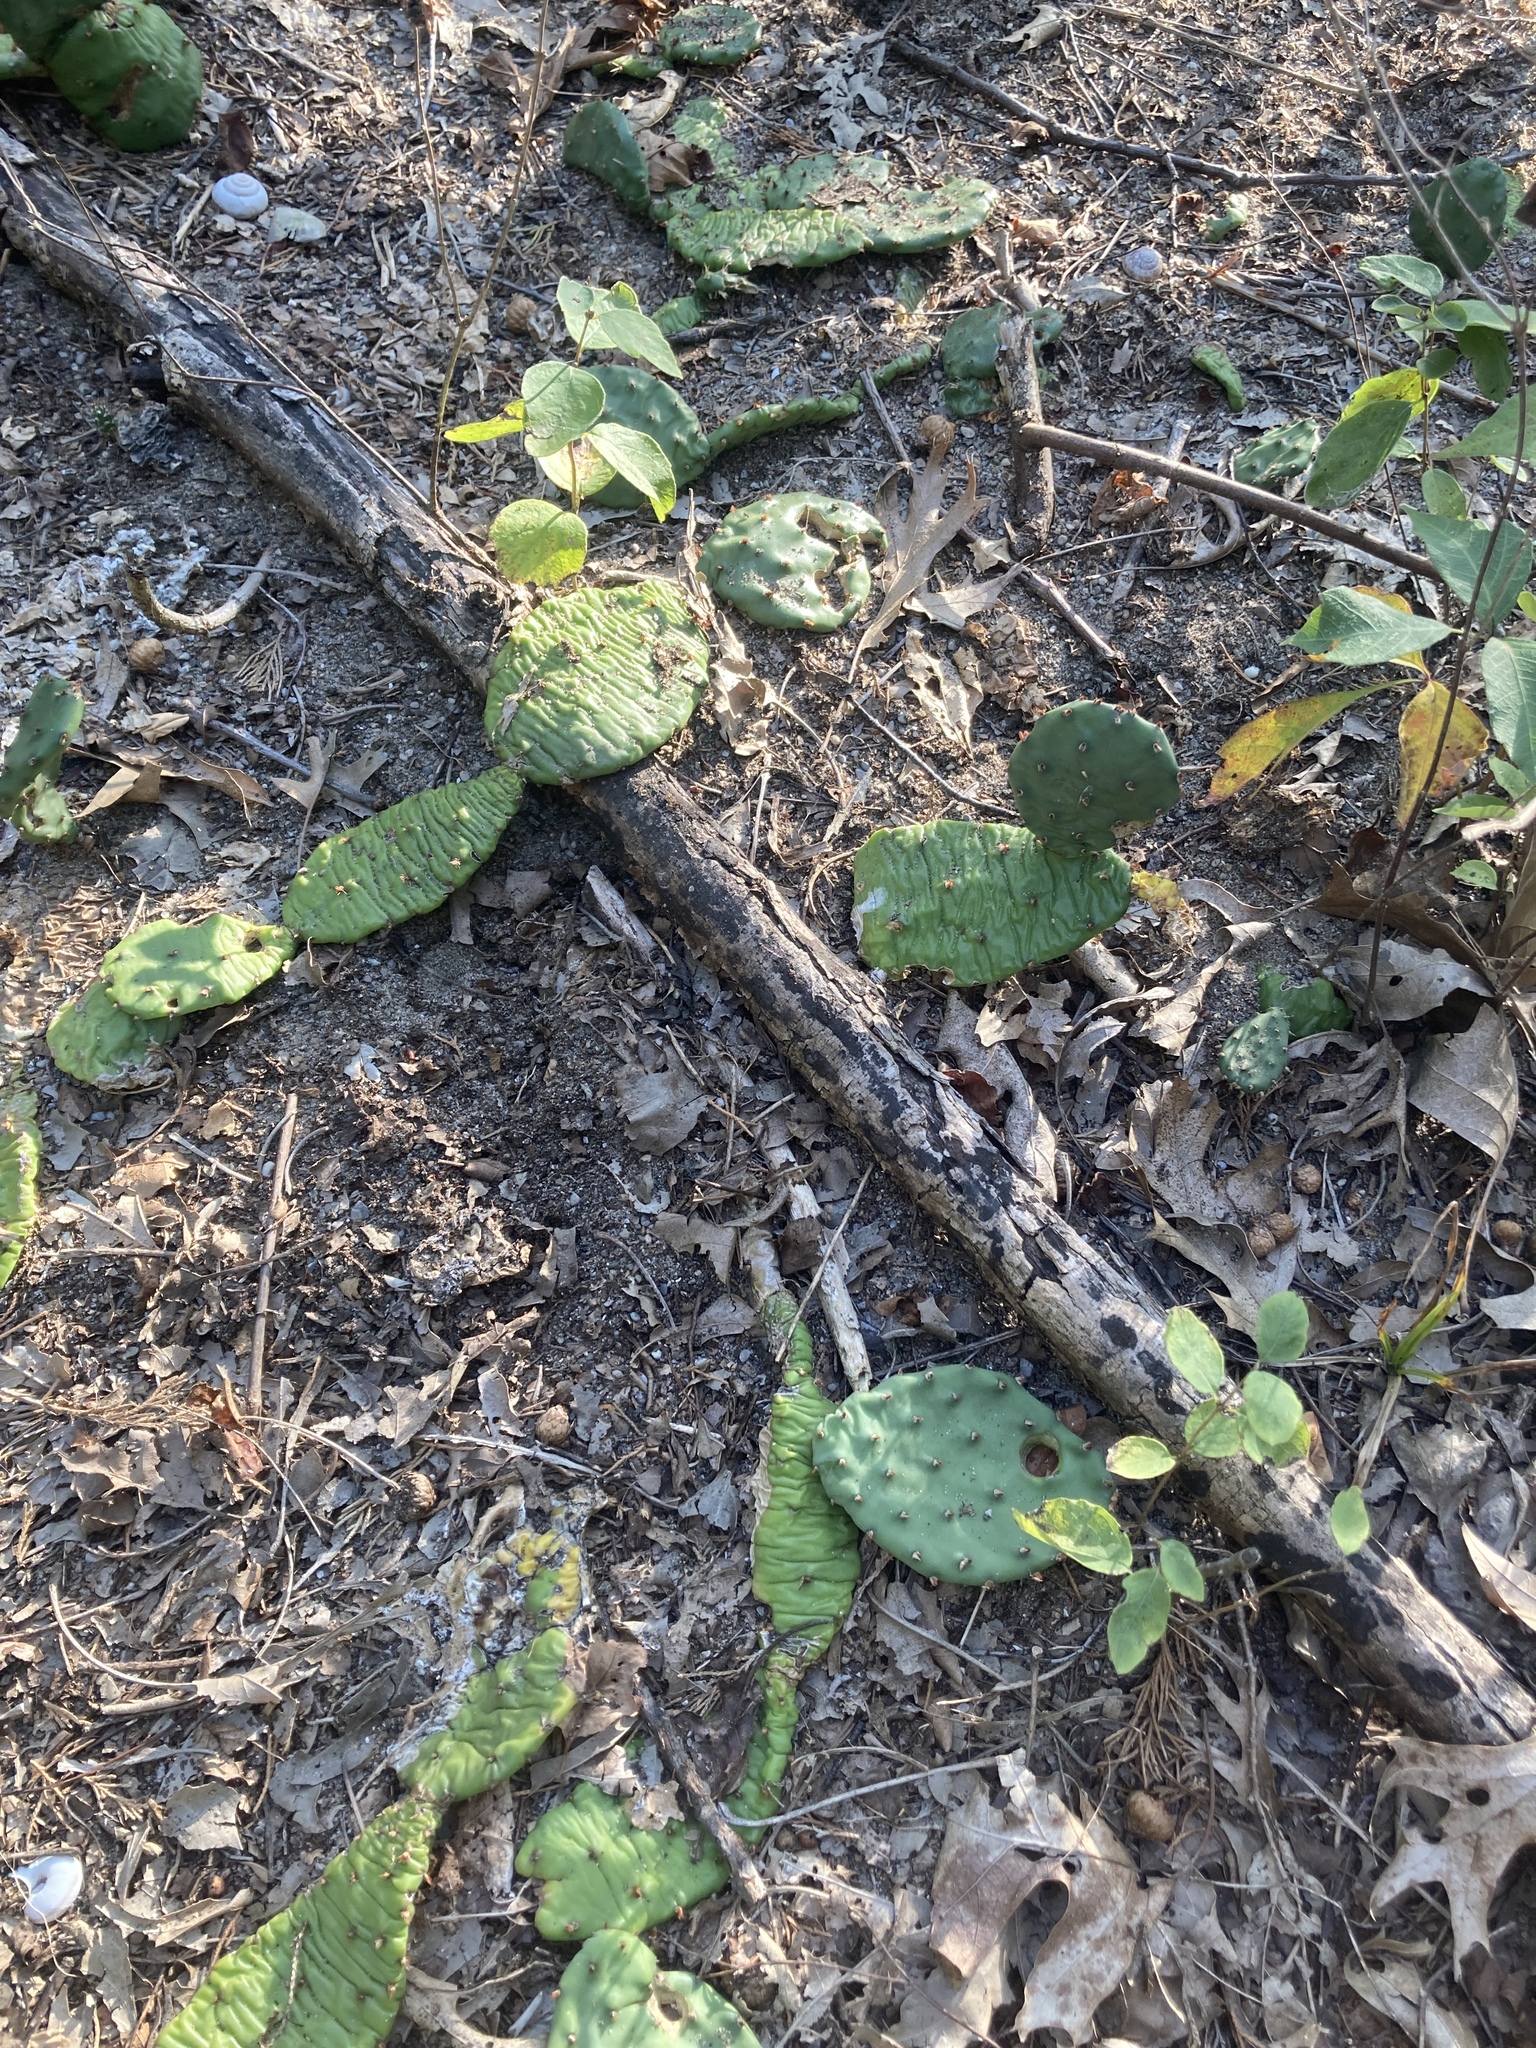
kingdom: Plantae
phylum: Tracheophyta
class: Magnoliopsida
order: Caryophyllales
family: Cactaceae
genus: Opuntia
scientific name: Opuntia humifusa
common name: Eastern prickly-pear
